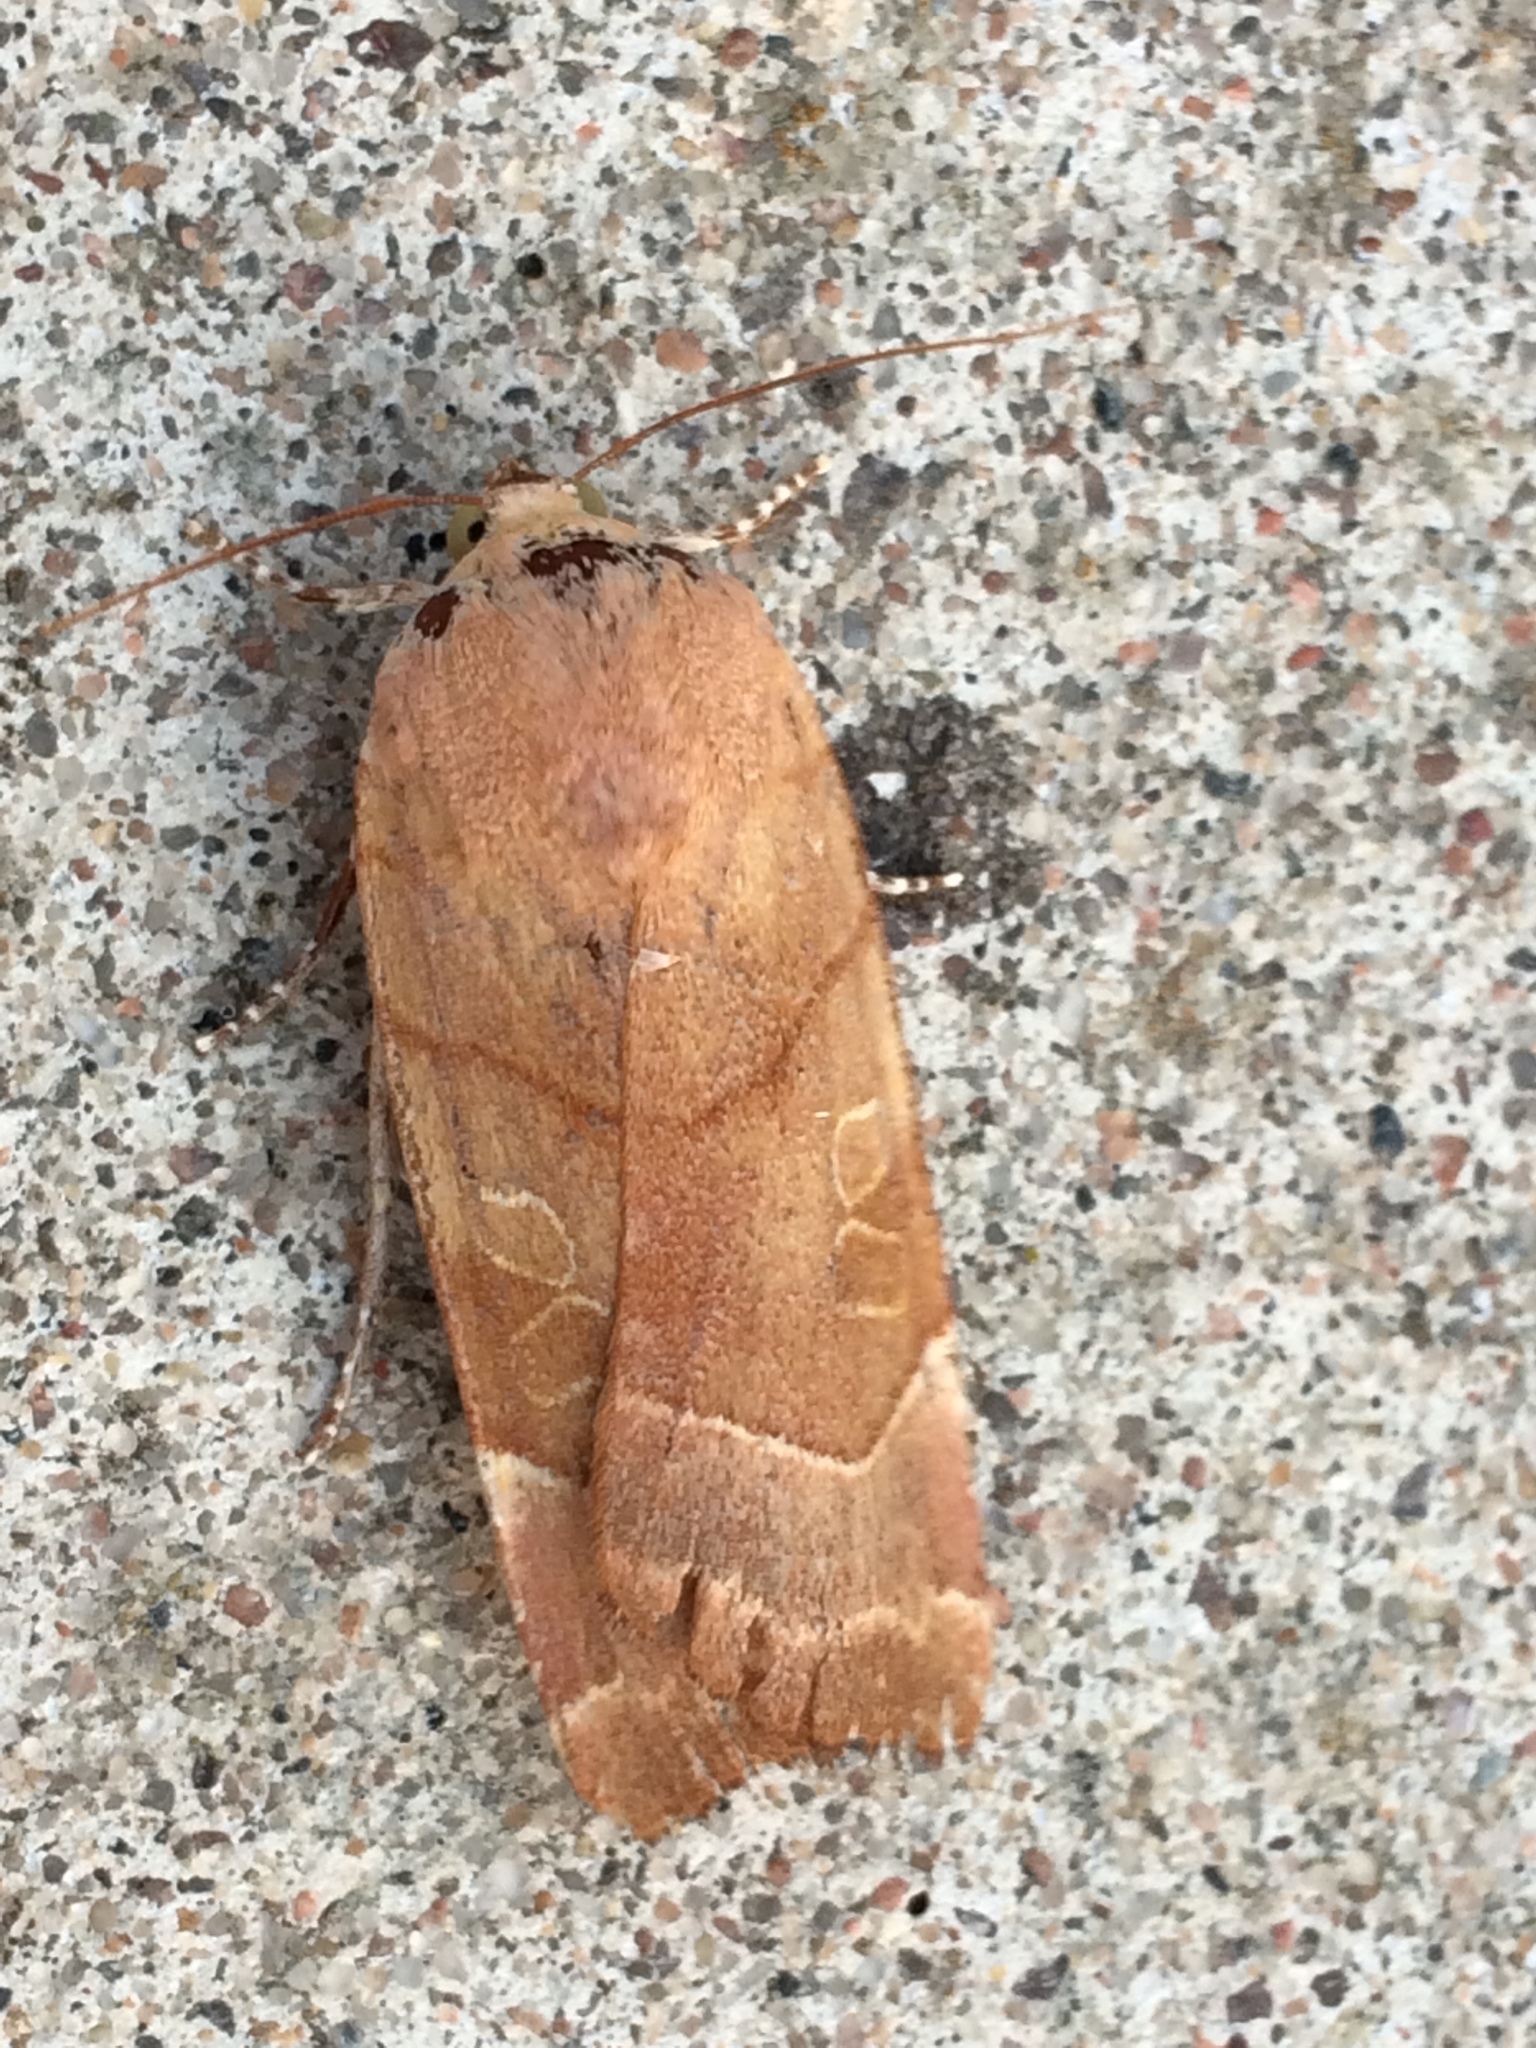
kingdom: Animalia
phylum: Arthropoda
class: Insecta
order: Lepidoptera
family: Noctuidae
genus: Noctua
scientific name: Noctua fimbriata
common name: Broad-bordered yellow underwing
